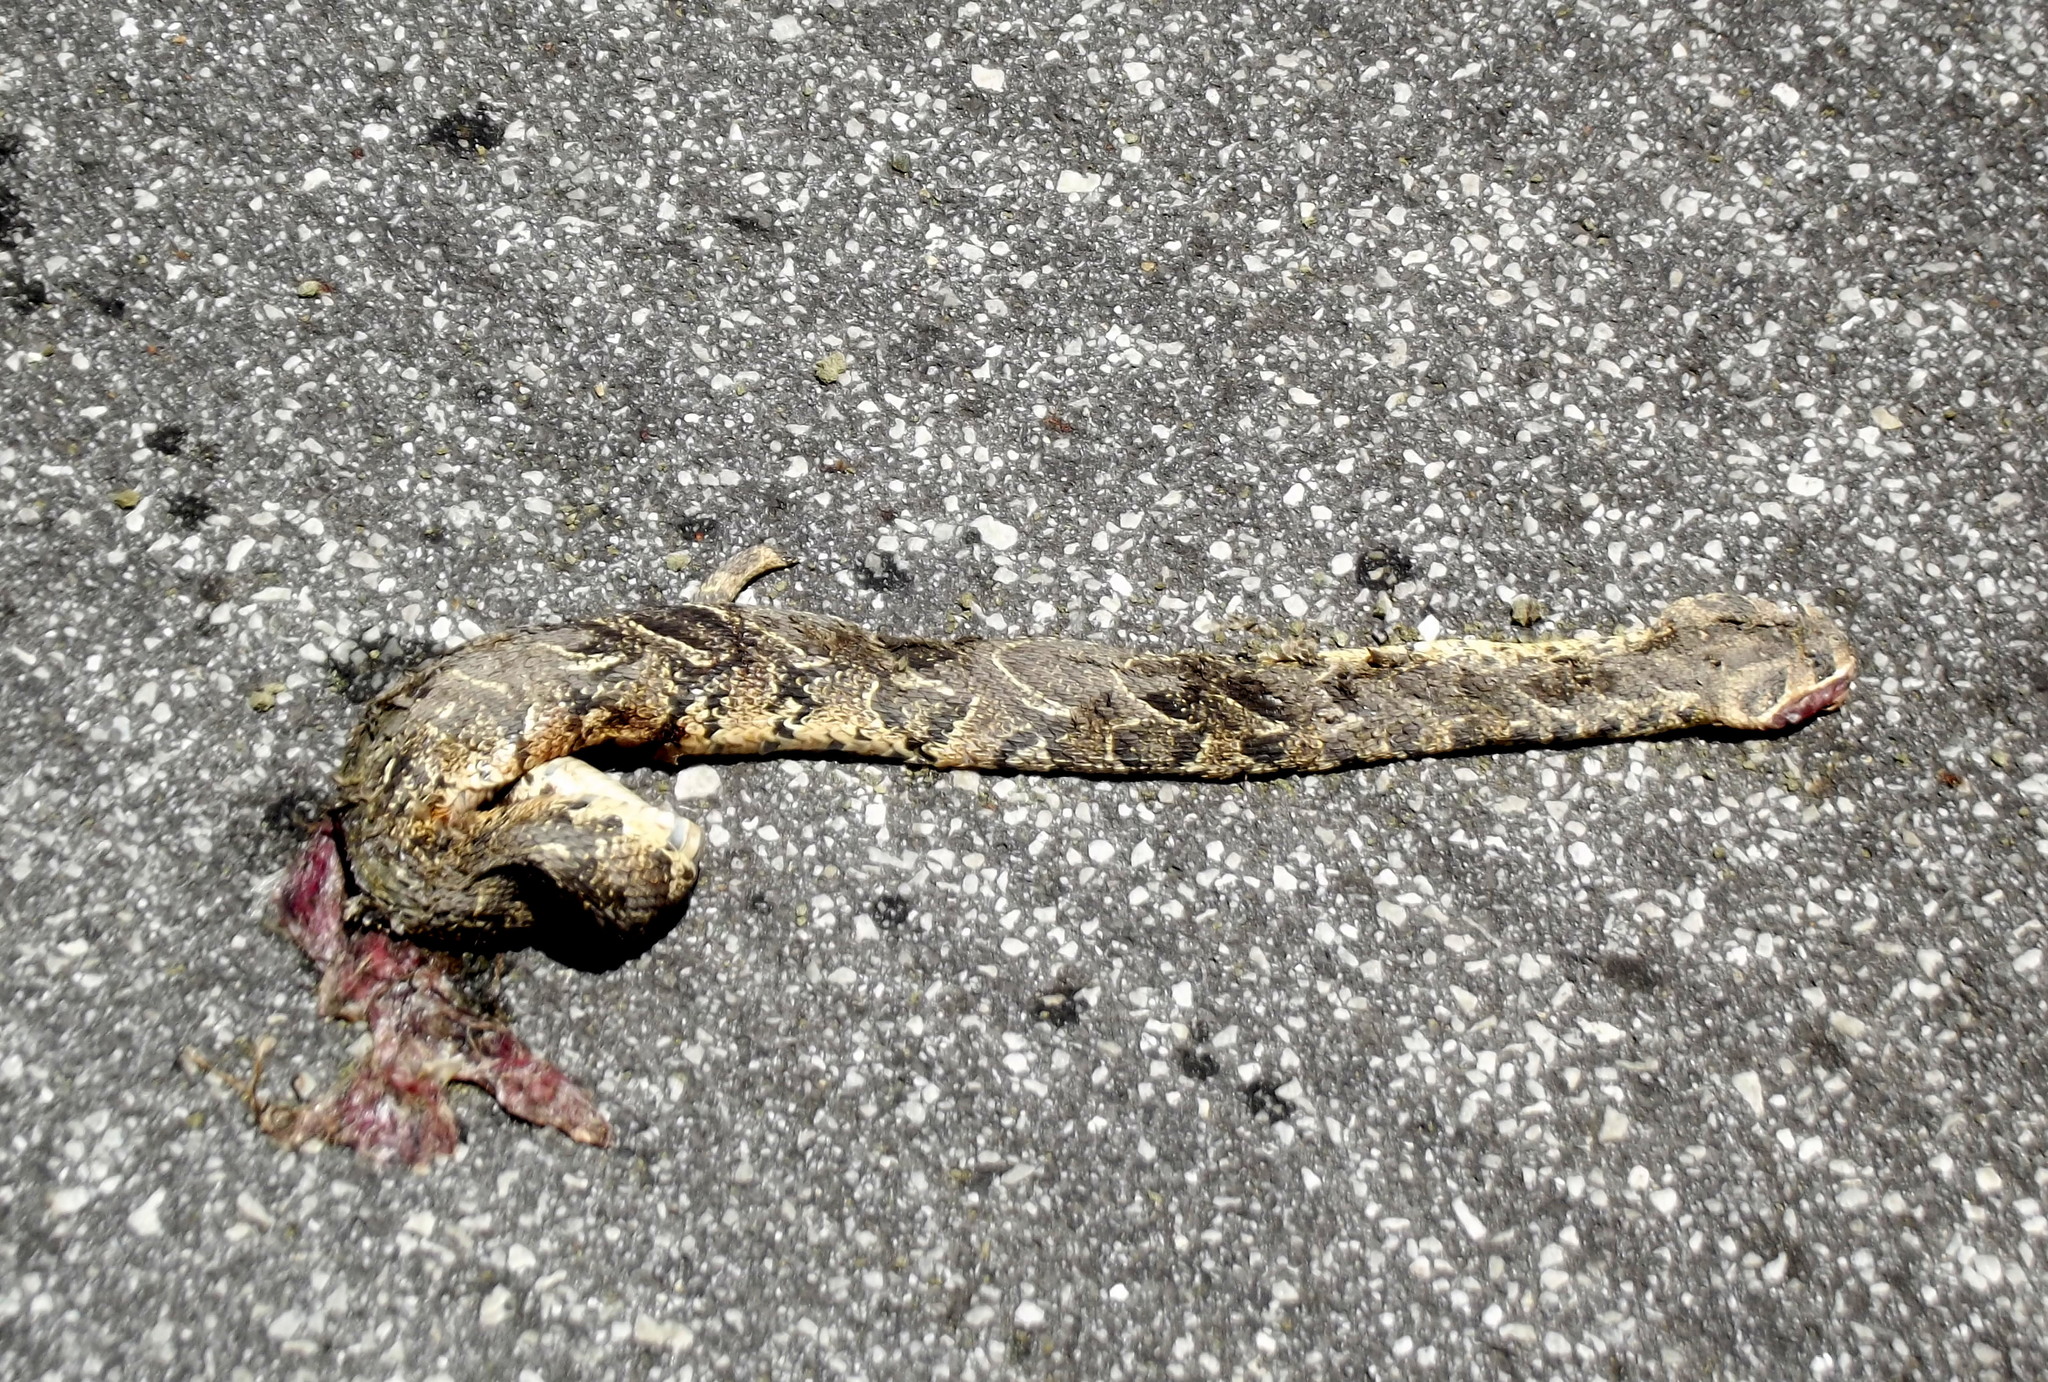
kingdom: Animalia
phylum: Chordata
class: Squamata
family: Viperidae
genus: Bitis
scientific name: Bitis arietans
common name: Puff adder
